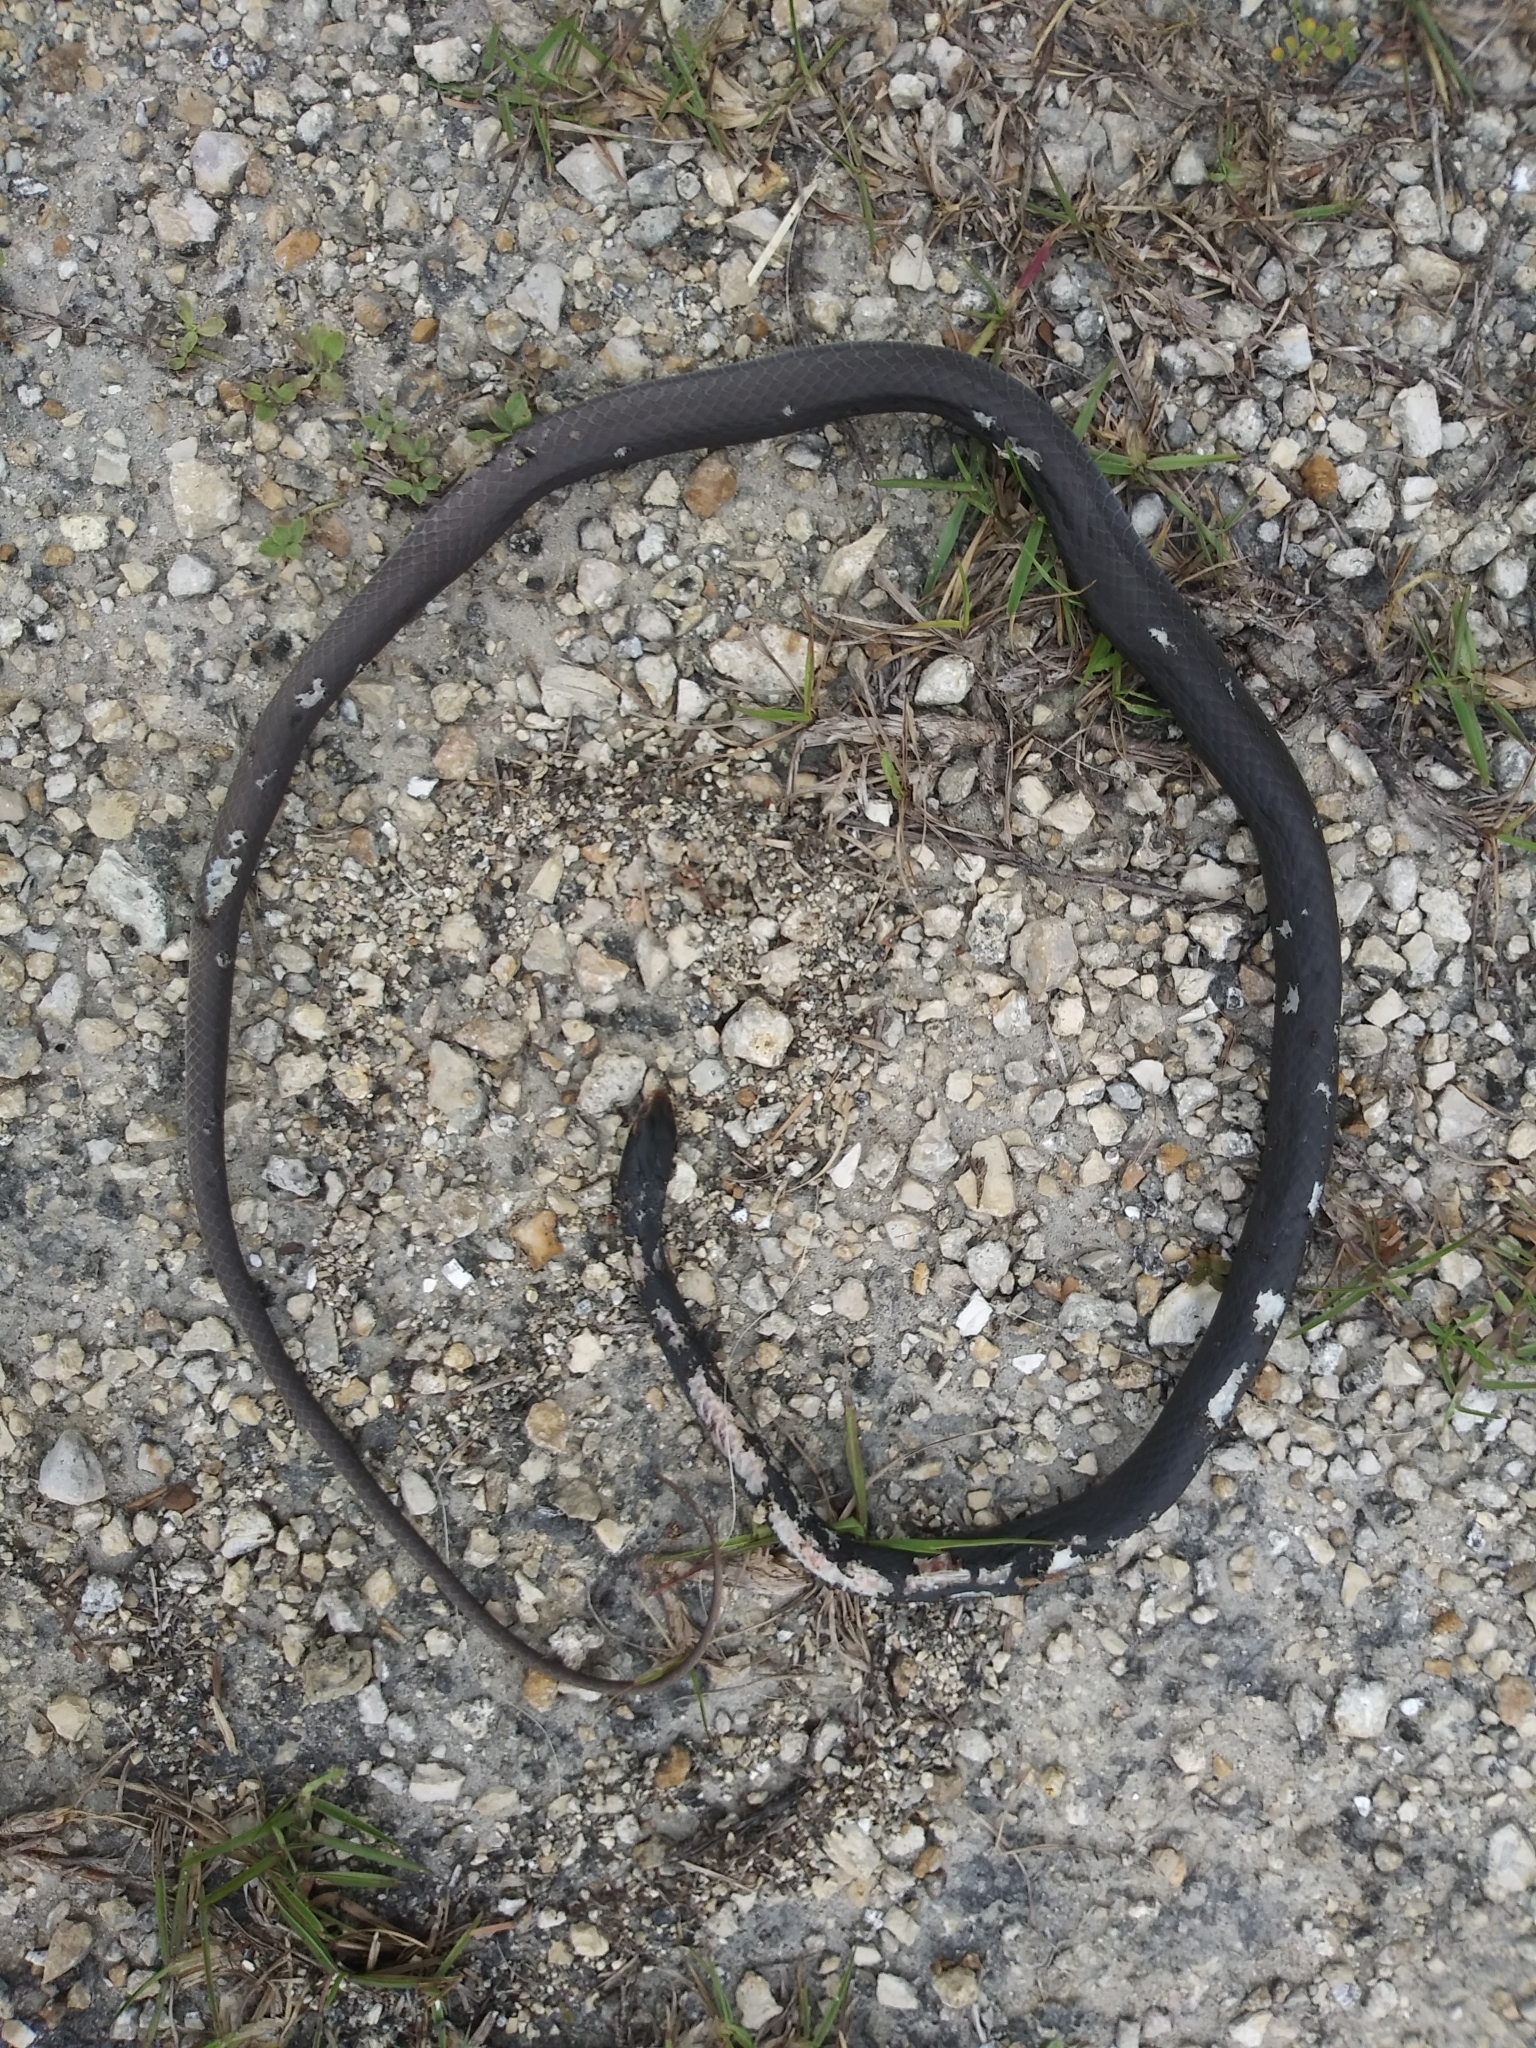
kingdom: Animalia
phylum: Chordata
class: Squamata
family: Colubridae
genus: Coluber
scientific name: Coluber constrictor
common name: Eastern racer
